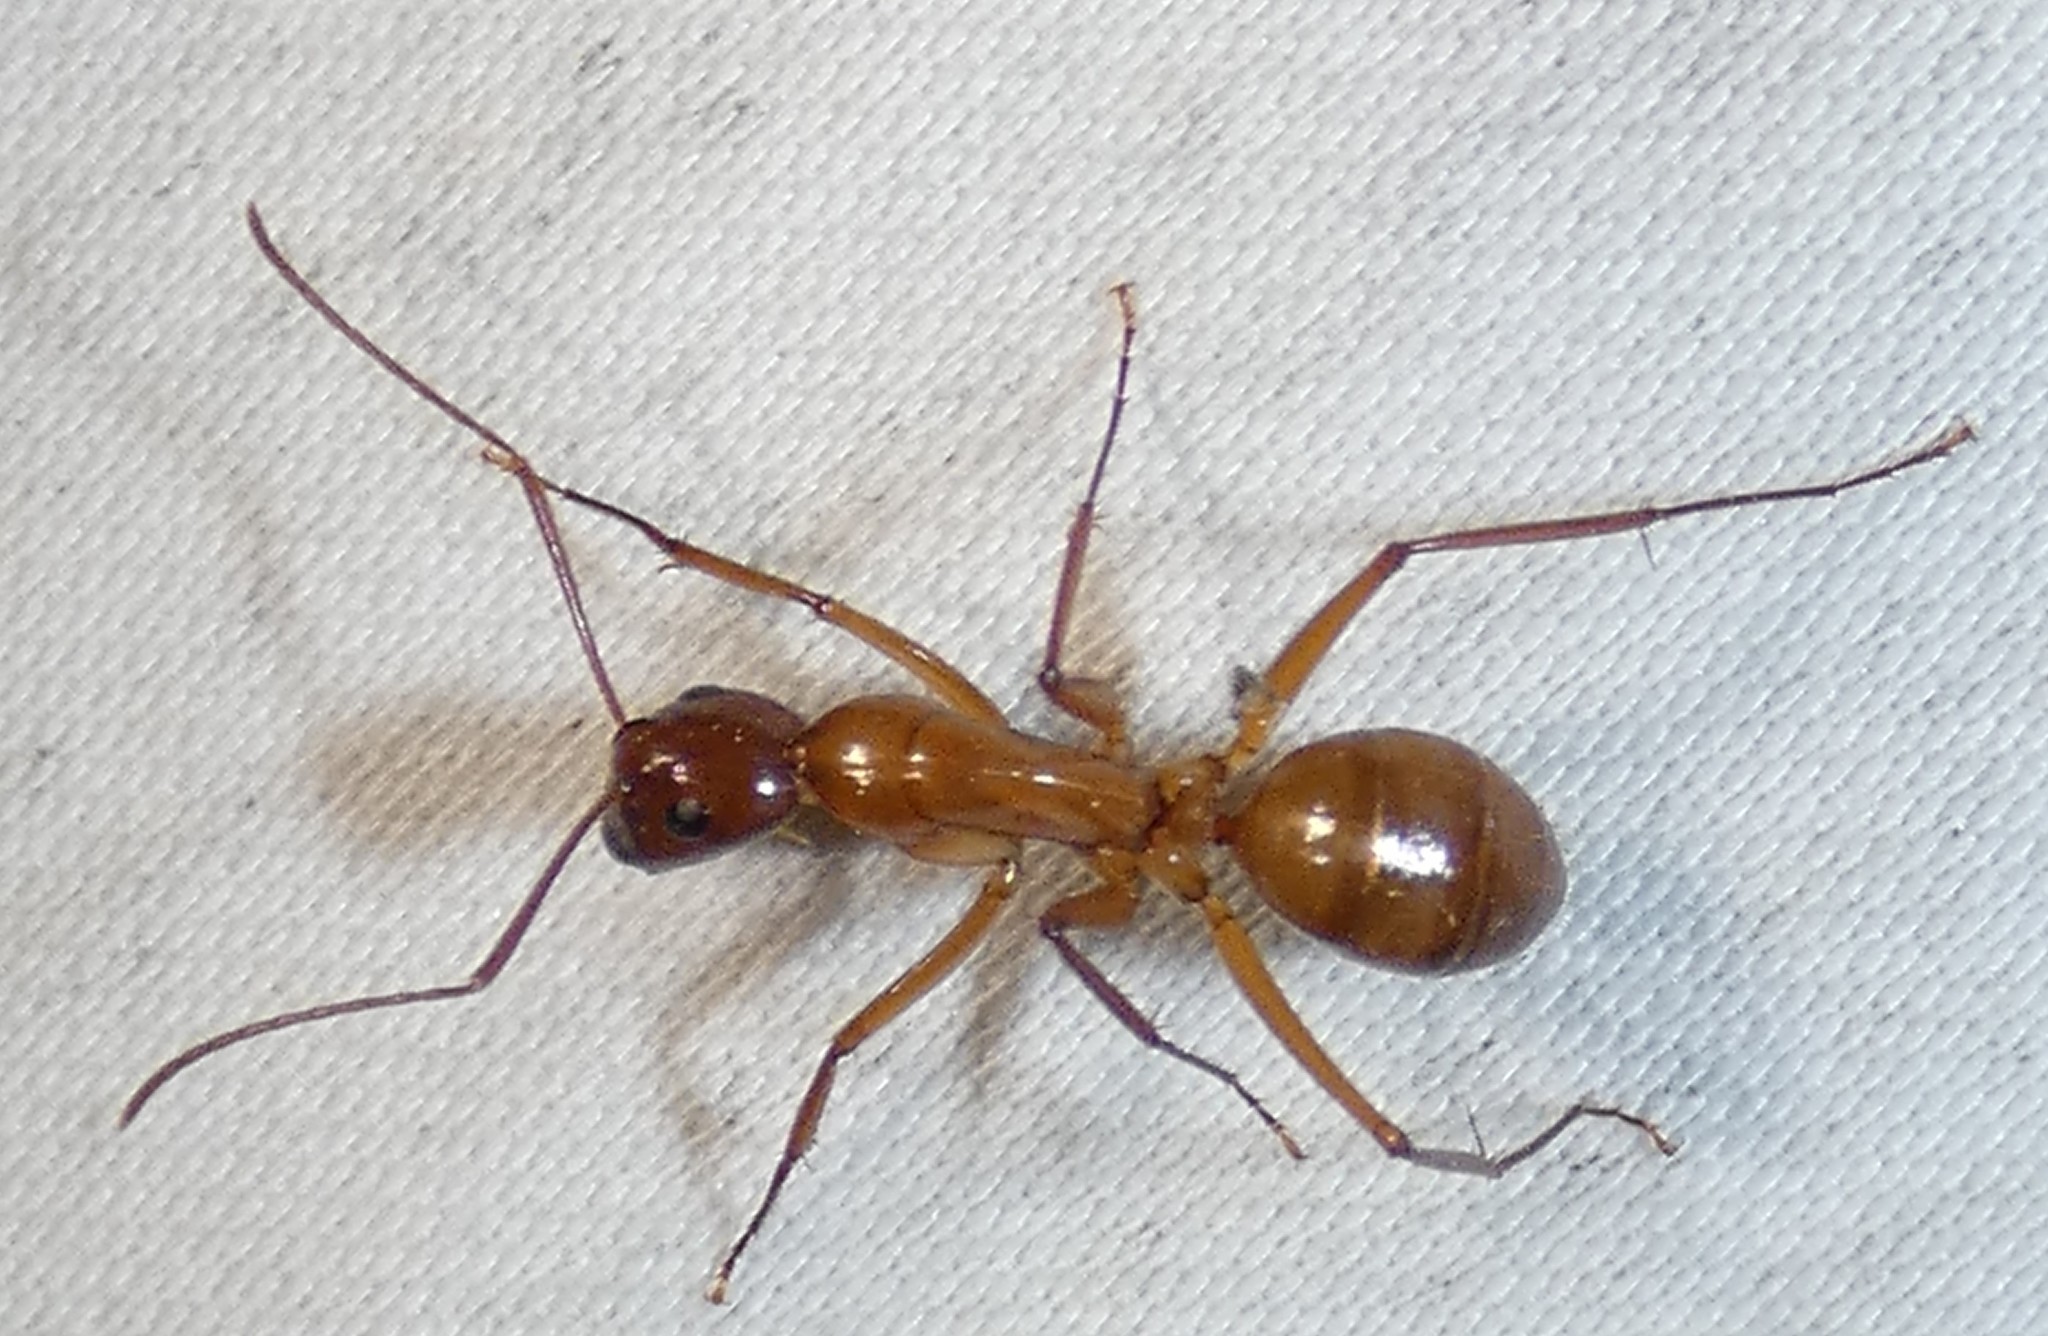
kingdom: Animalia
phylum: Arthropoda
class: Insecta
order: Hymenoptera
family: Formicidae
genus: Camponotus
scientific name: Camponotus castaneus
